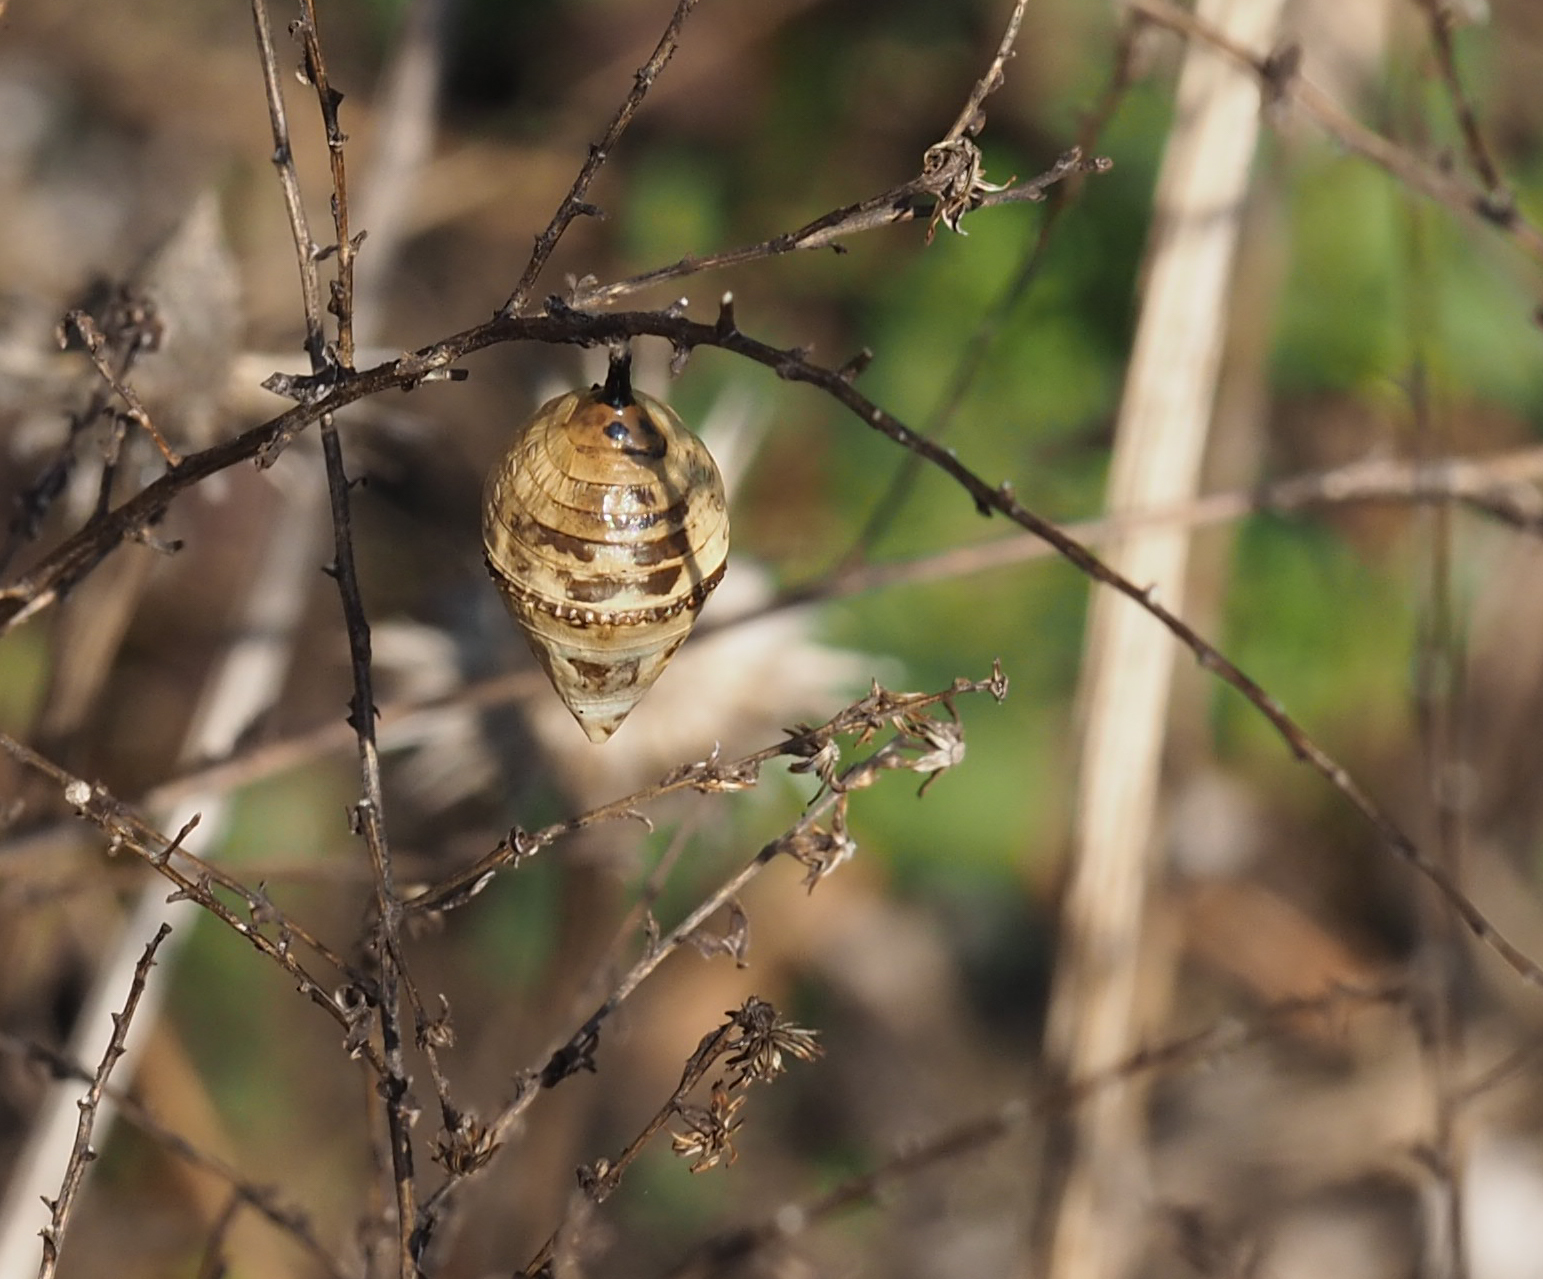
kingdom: Animalia
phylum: Arthropoda
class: Insecta
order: Lepidoptera
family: Nymphalidae
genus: Danaus
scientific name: Danaus plexippus
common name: Monarch
